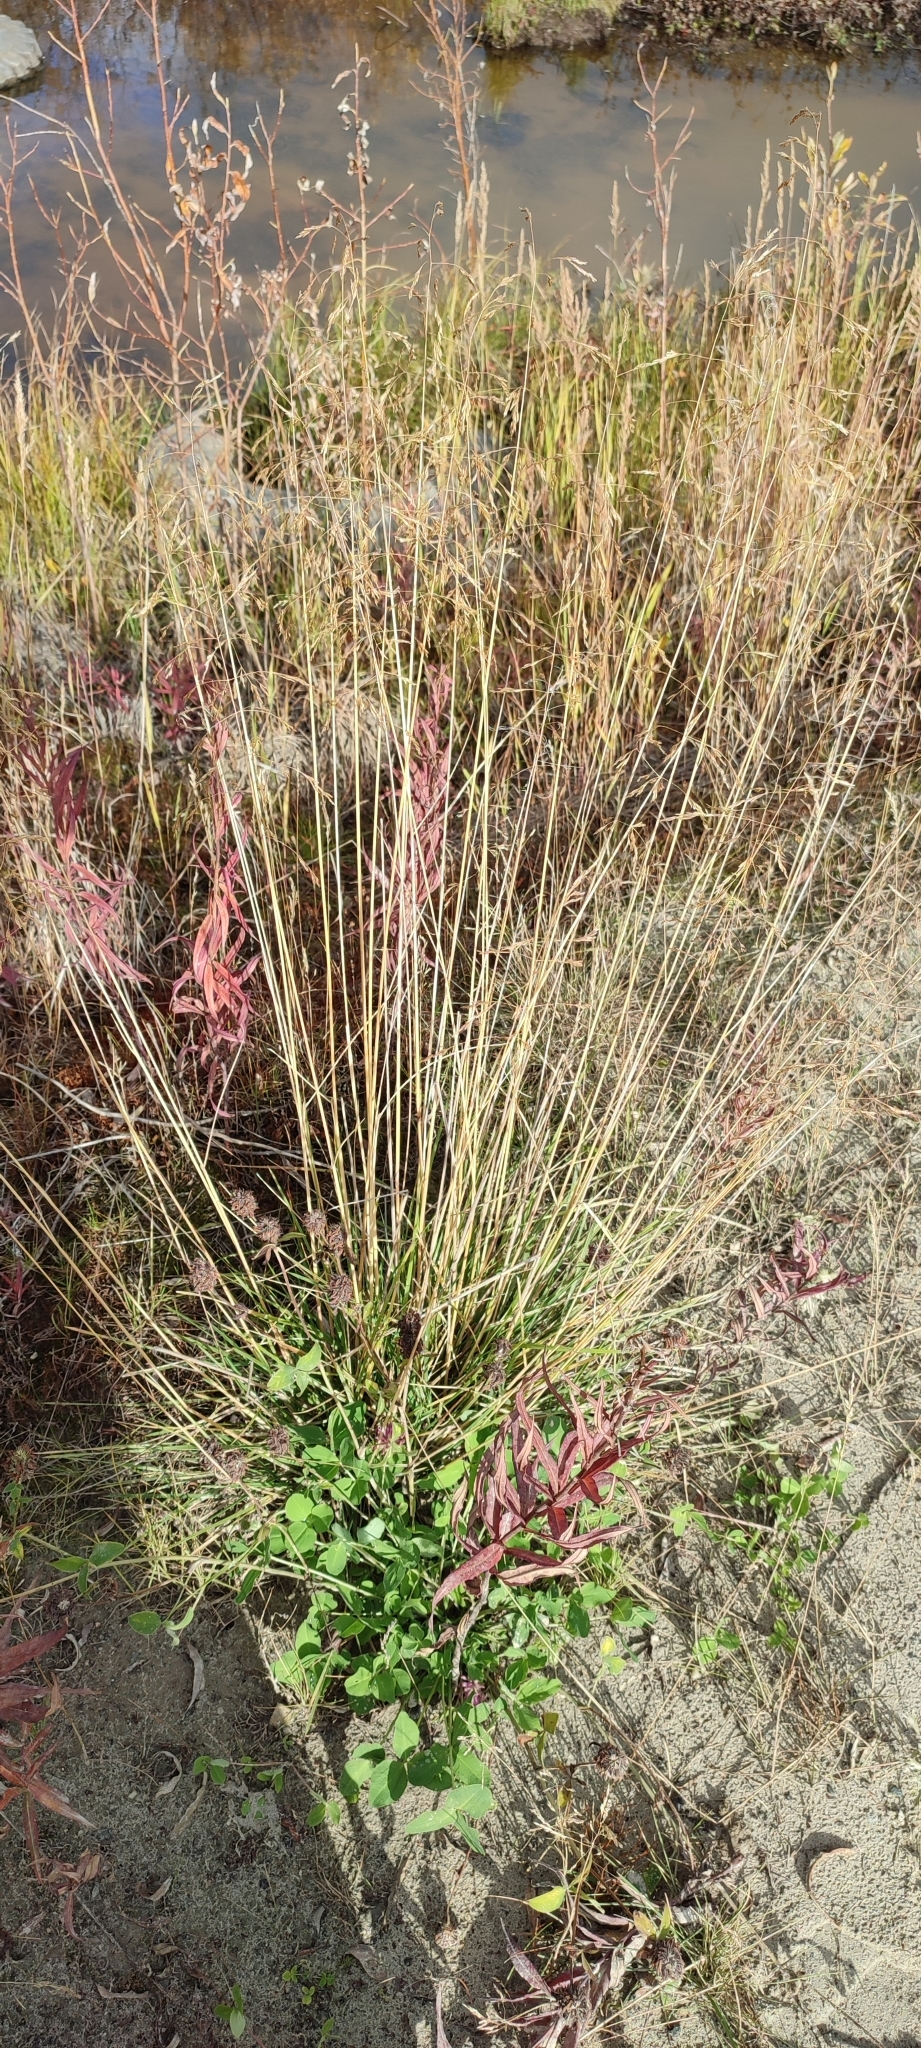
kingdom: Plantae
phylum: Tracheophyta
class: Liliopsida
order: Poales
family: Poaceae
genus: Deschampsia
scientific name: Deschampsia cespitosa
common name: Tufted hair-grass
